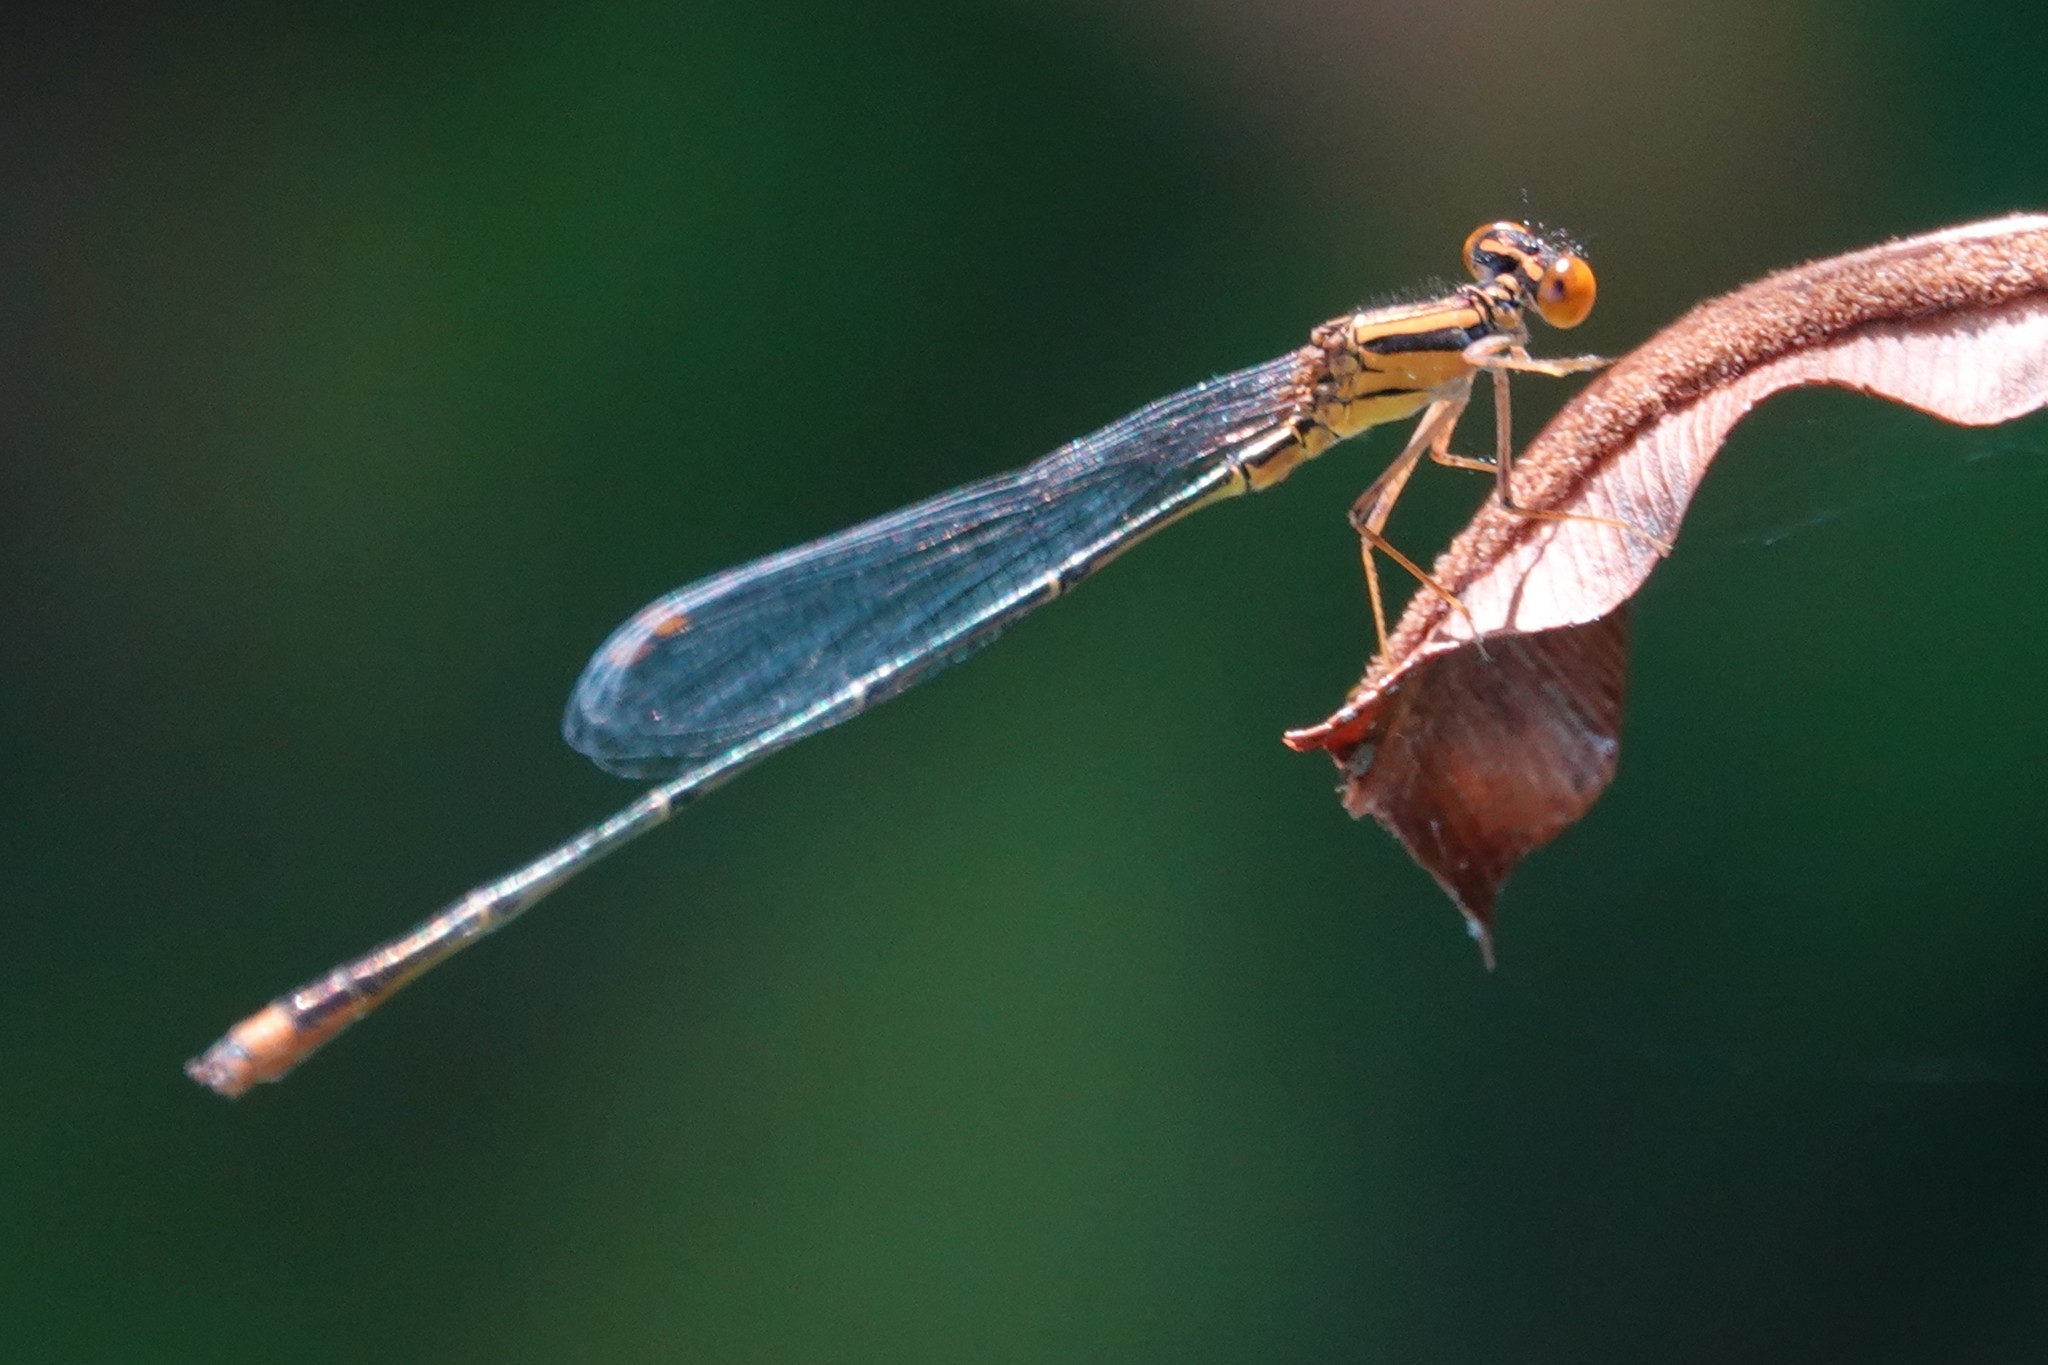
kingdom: Animalia
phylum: Arthropoda
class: Insecta
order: Odonata
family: Coenagrionidae
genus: Enallagma
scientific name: Enallagma pollutum
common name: Florida bluet
